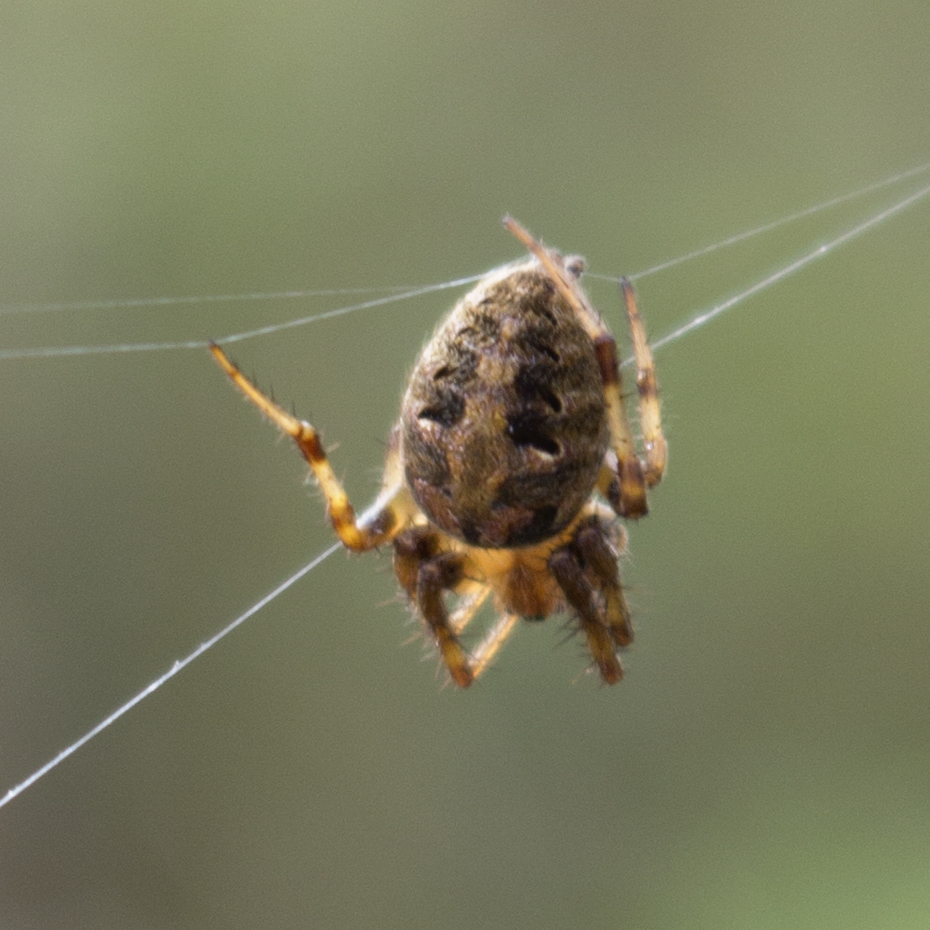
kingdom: Animalia
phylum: Arthropoda
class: Arachnida
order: Araneae
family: Araneidae
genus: Neoscona
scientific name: Neoscona arabesca
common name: Orb weavers
